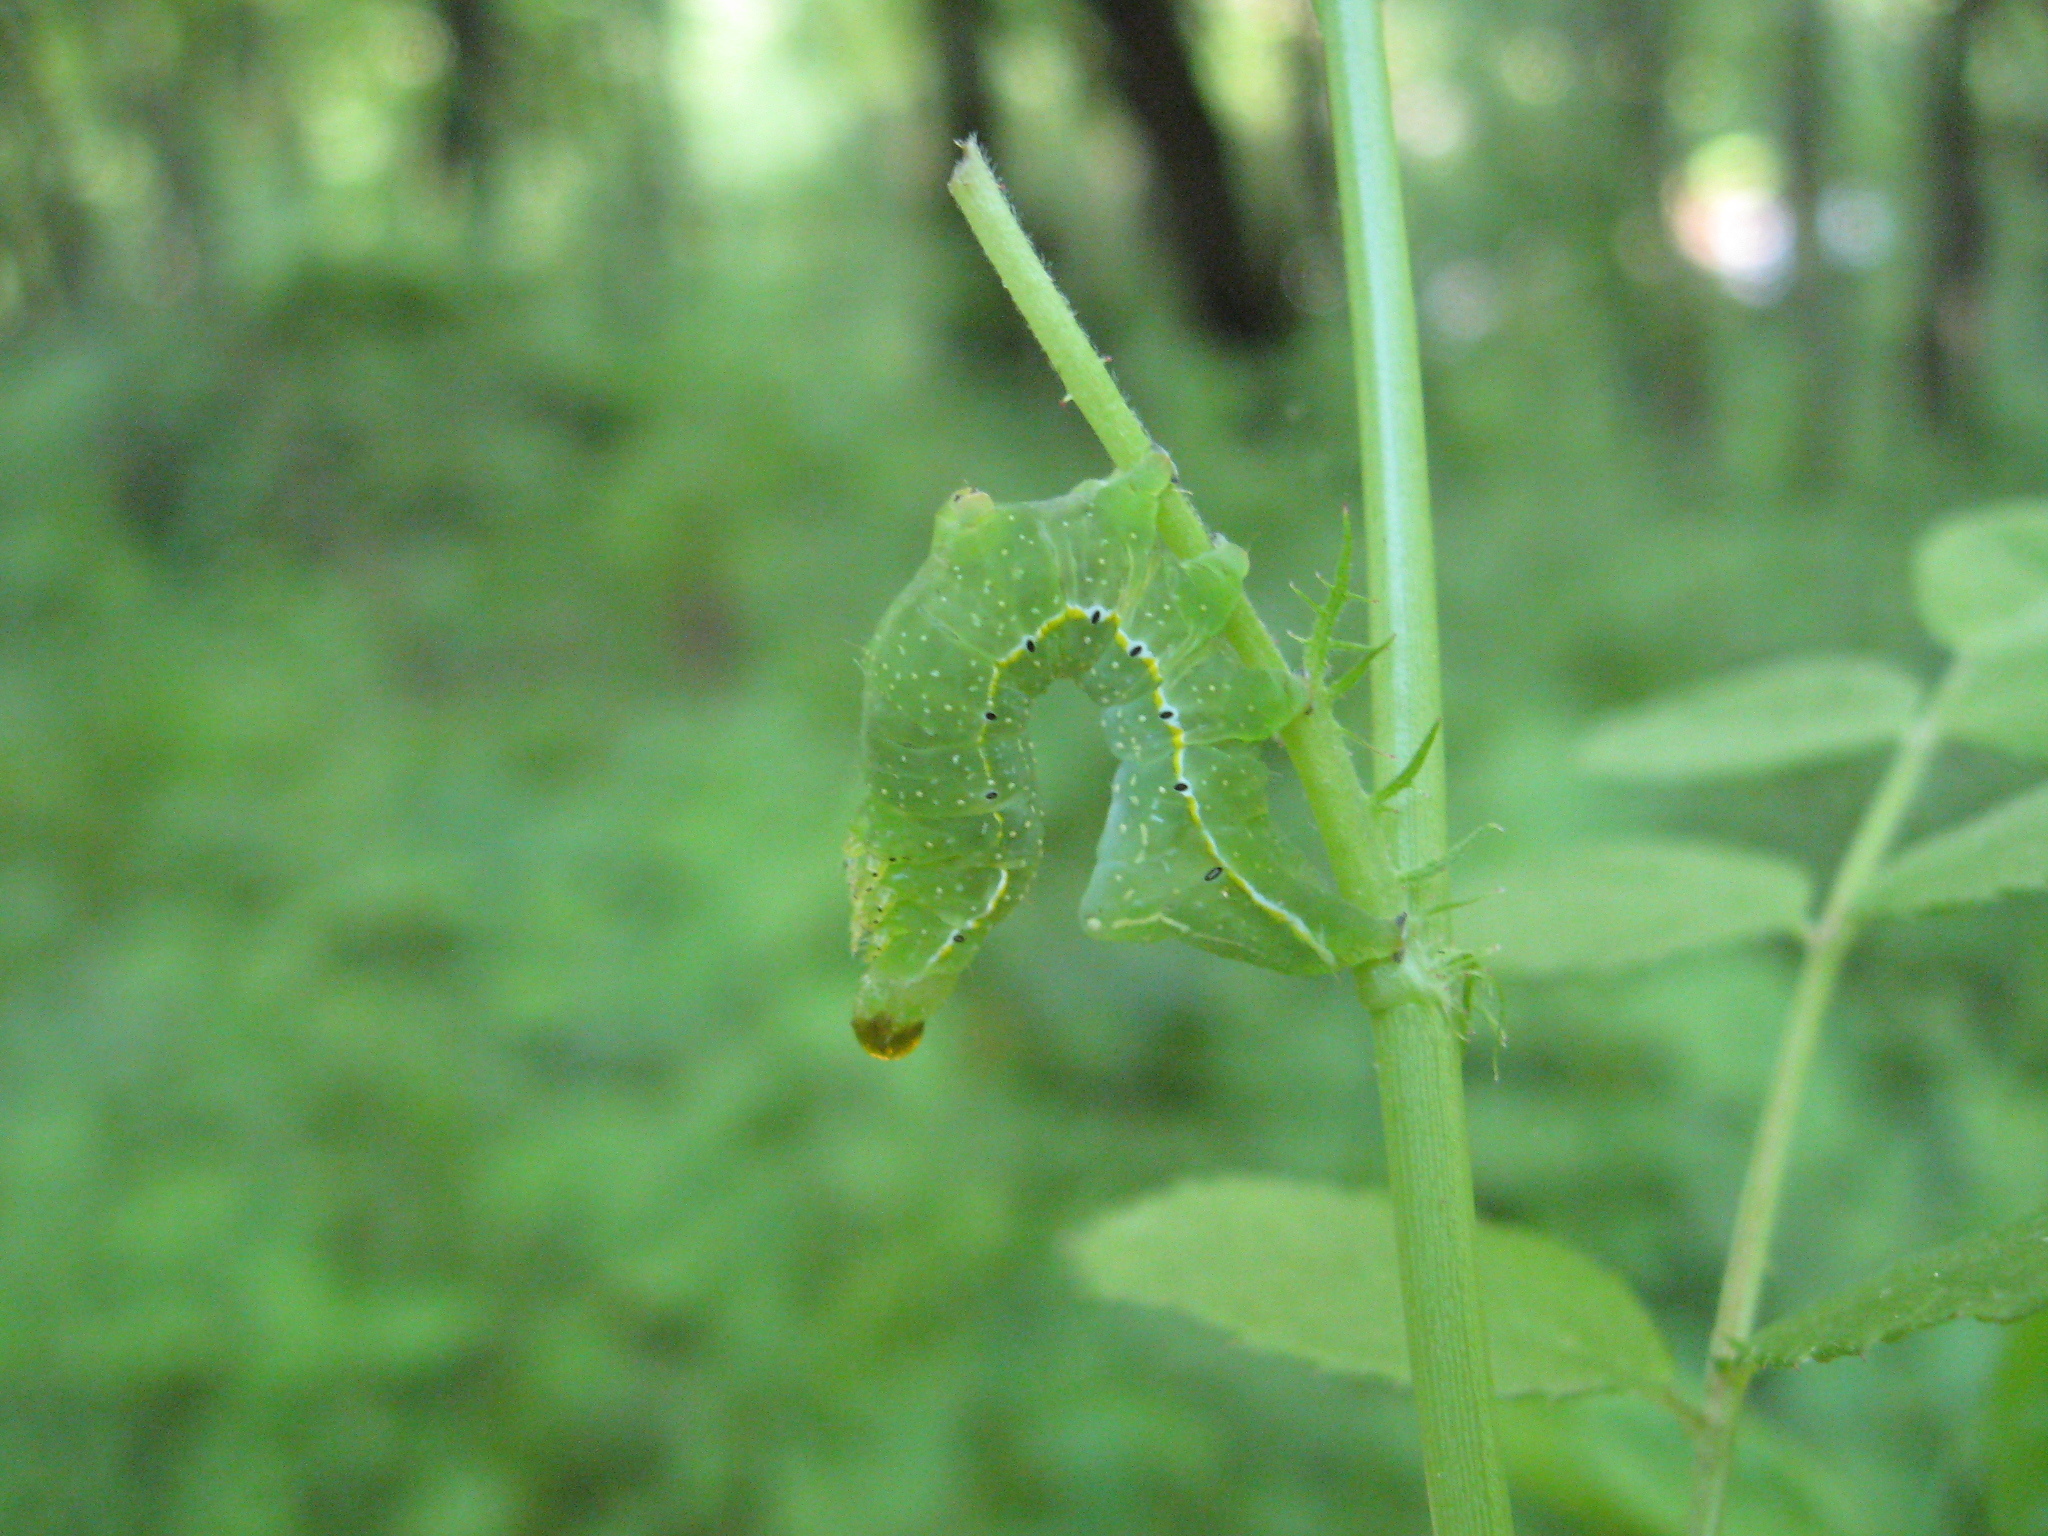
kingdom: Animalia
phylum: Arthropoda
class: Insecta
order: Lepidoptera
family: Noctuidae
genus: Amphipyra
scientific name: Amphipyra pyramidoides
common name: American copper underwing
